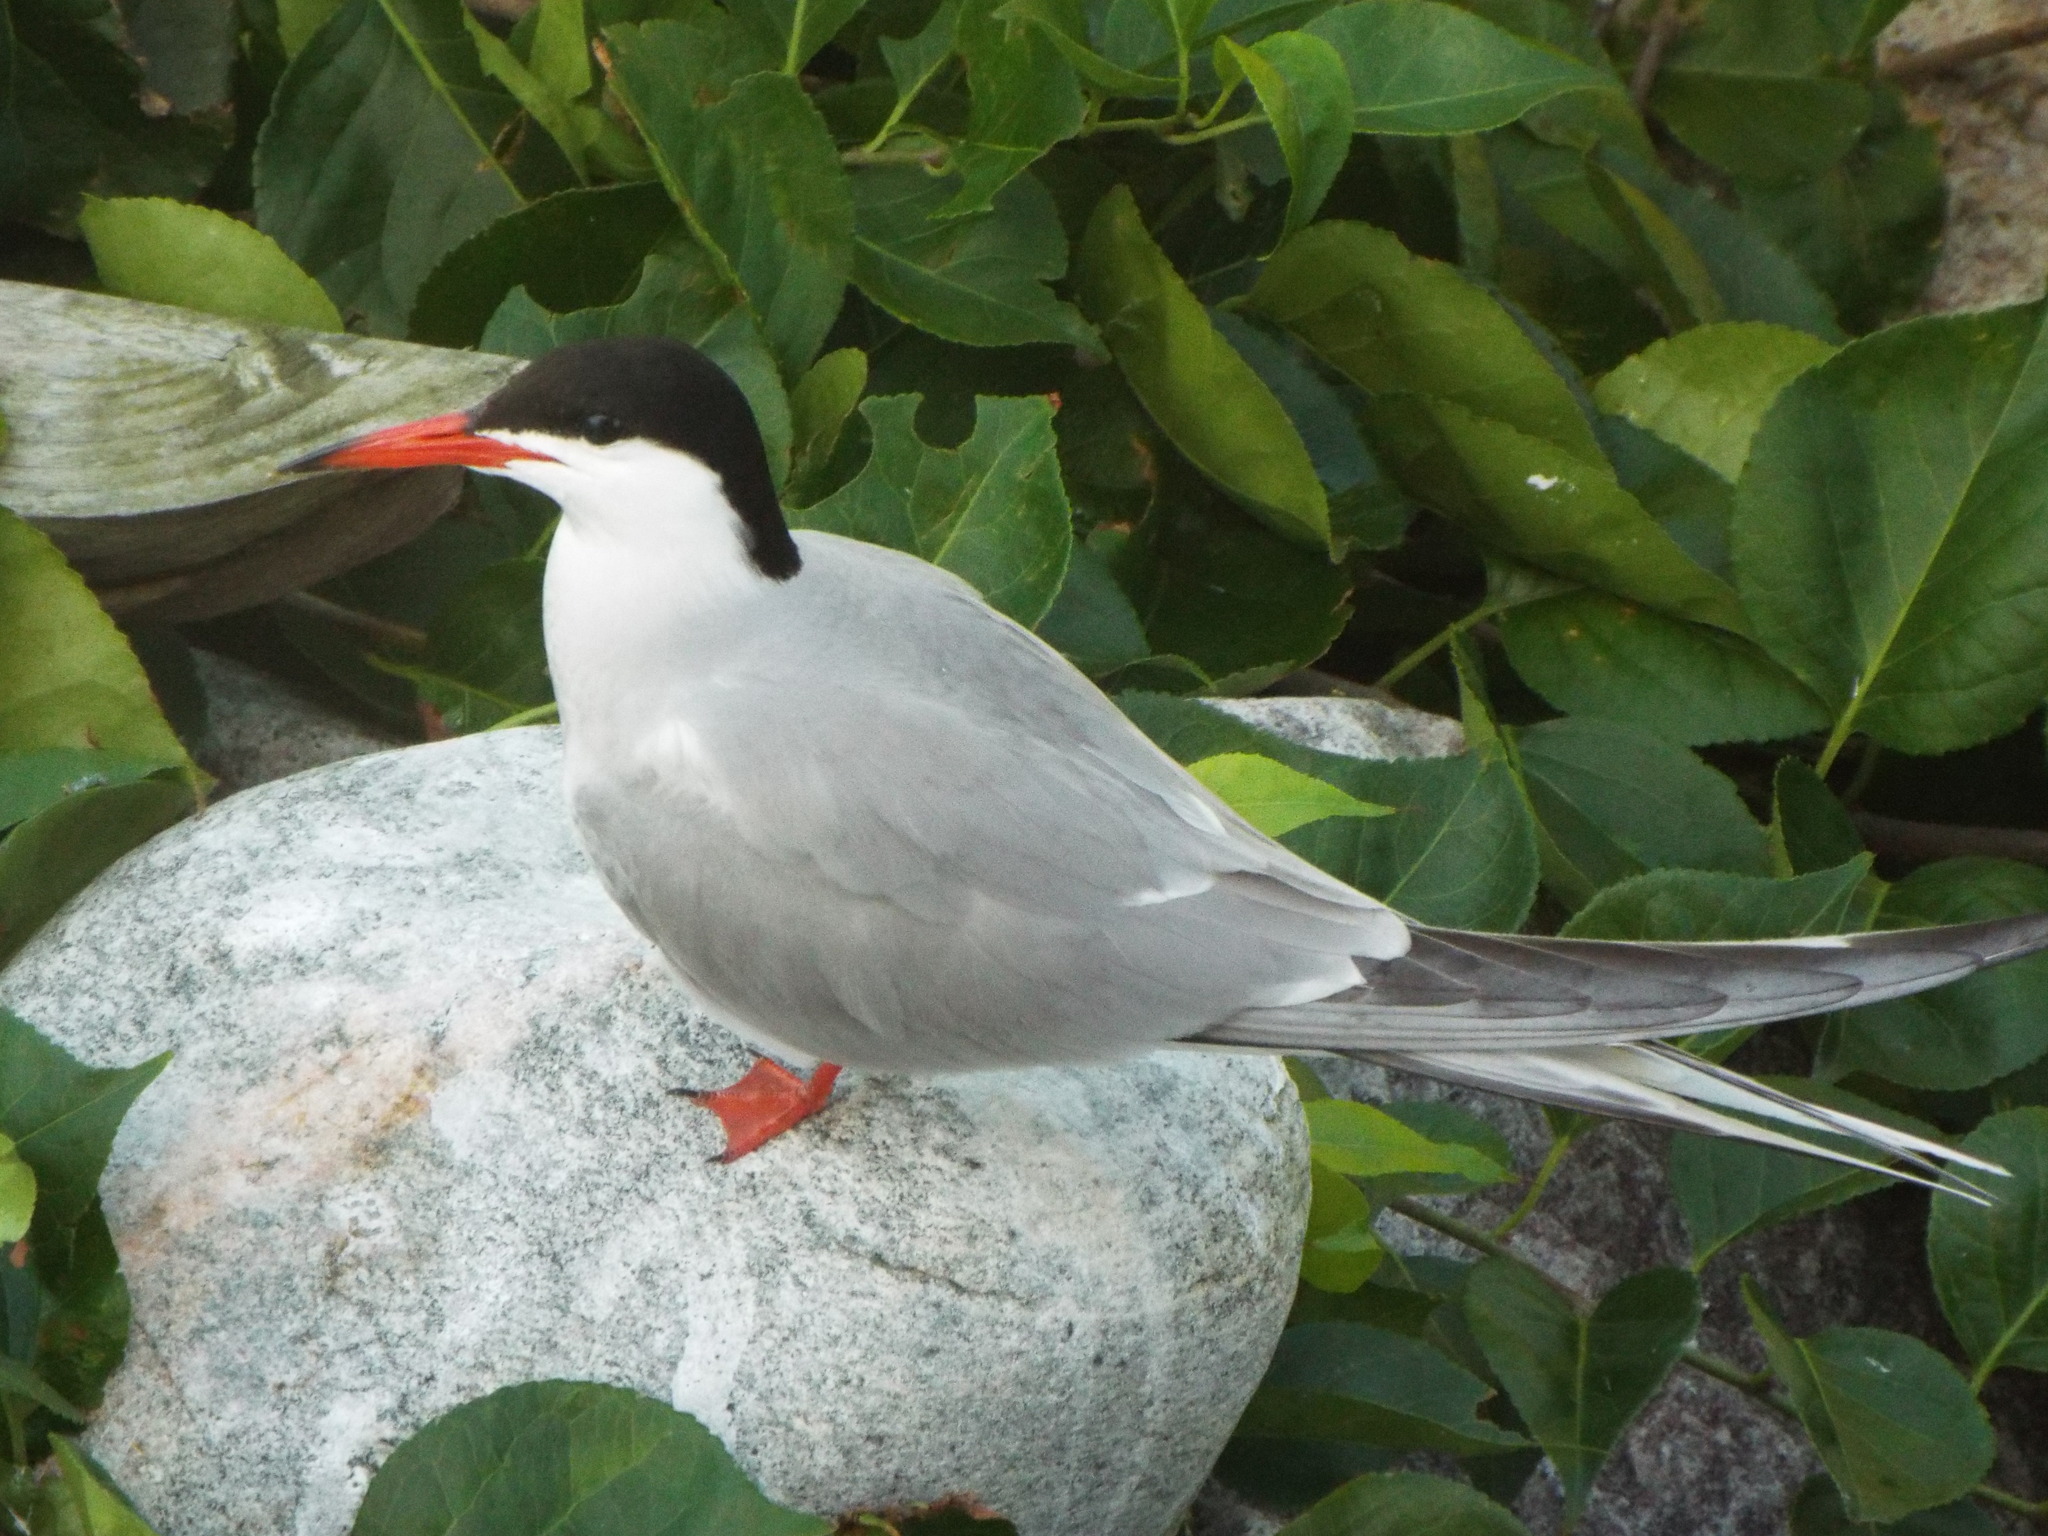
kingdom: Animalia
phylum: Chordata
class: Aves
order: Charadriiformes
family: Laridae
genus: Sterna
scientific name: Sterna hirundo
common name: Common tern
